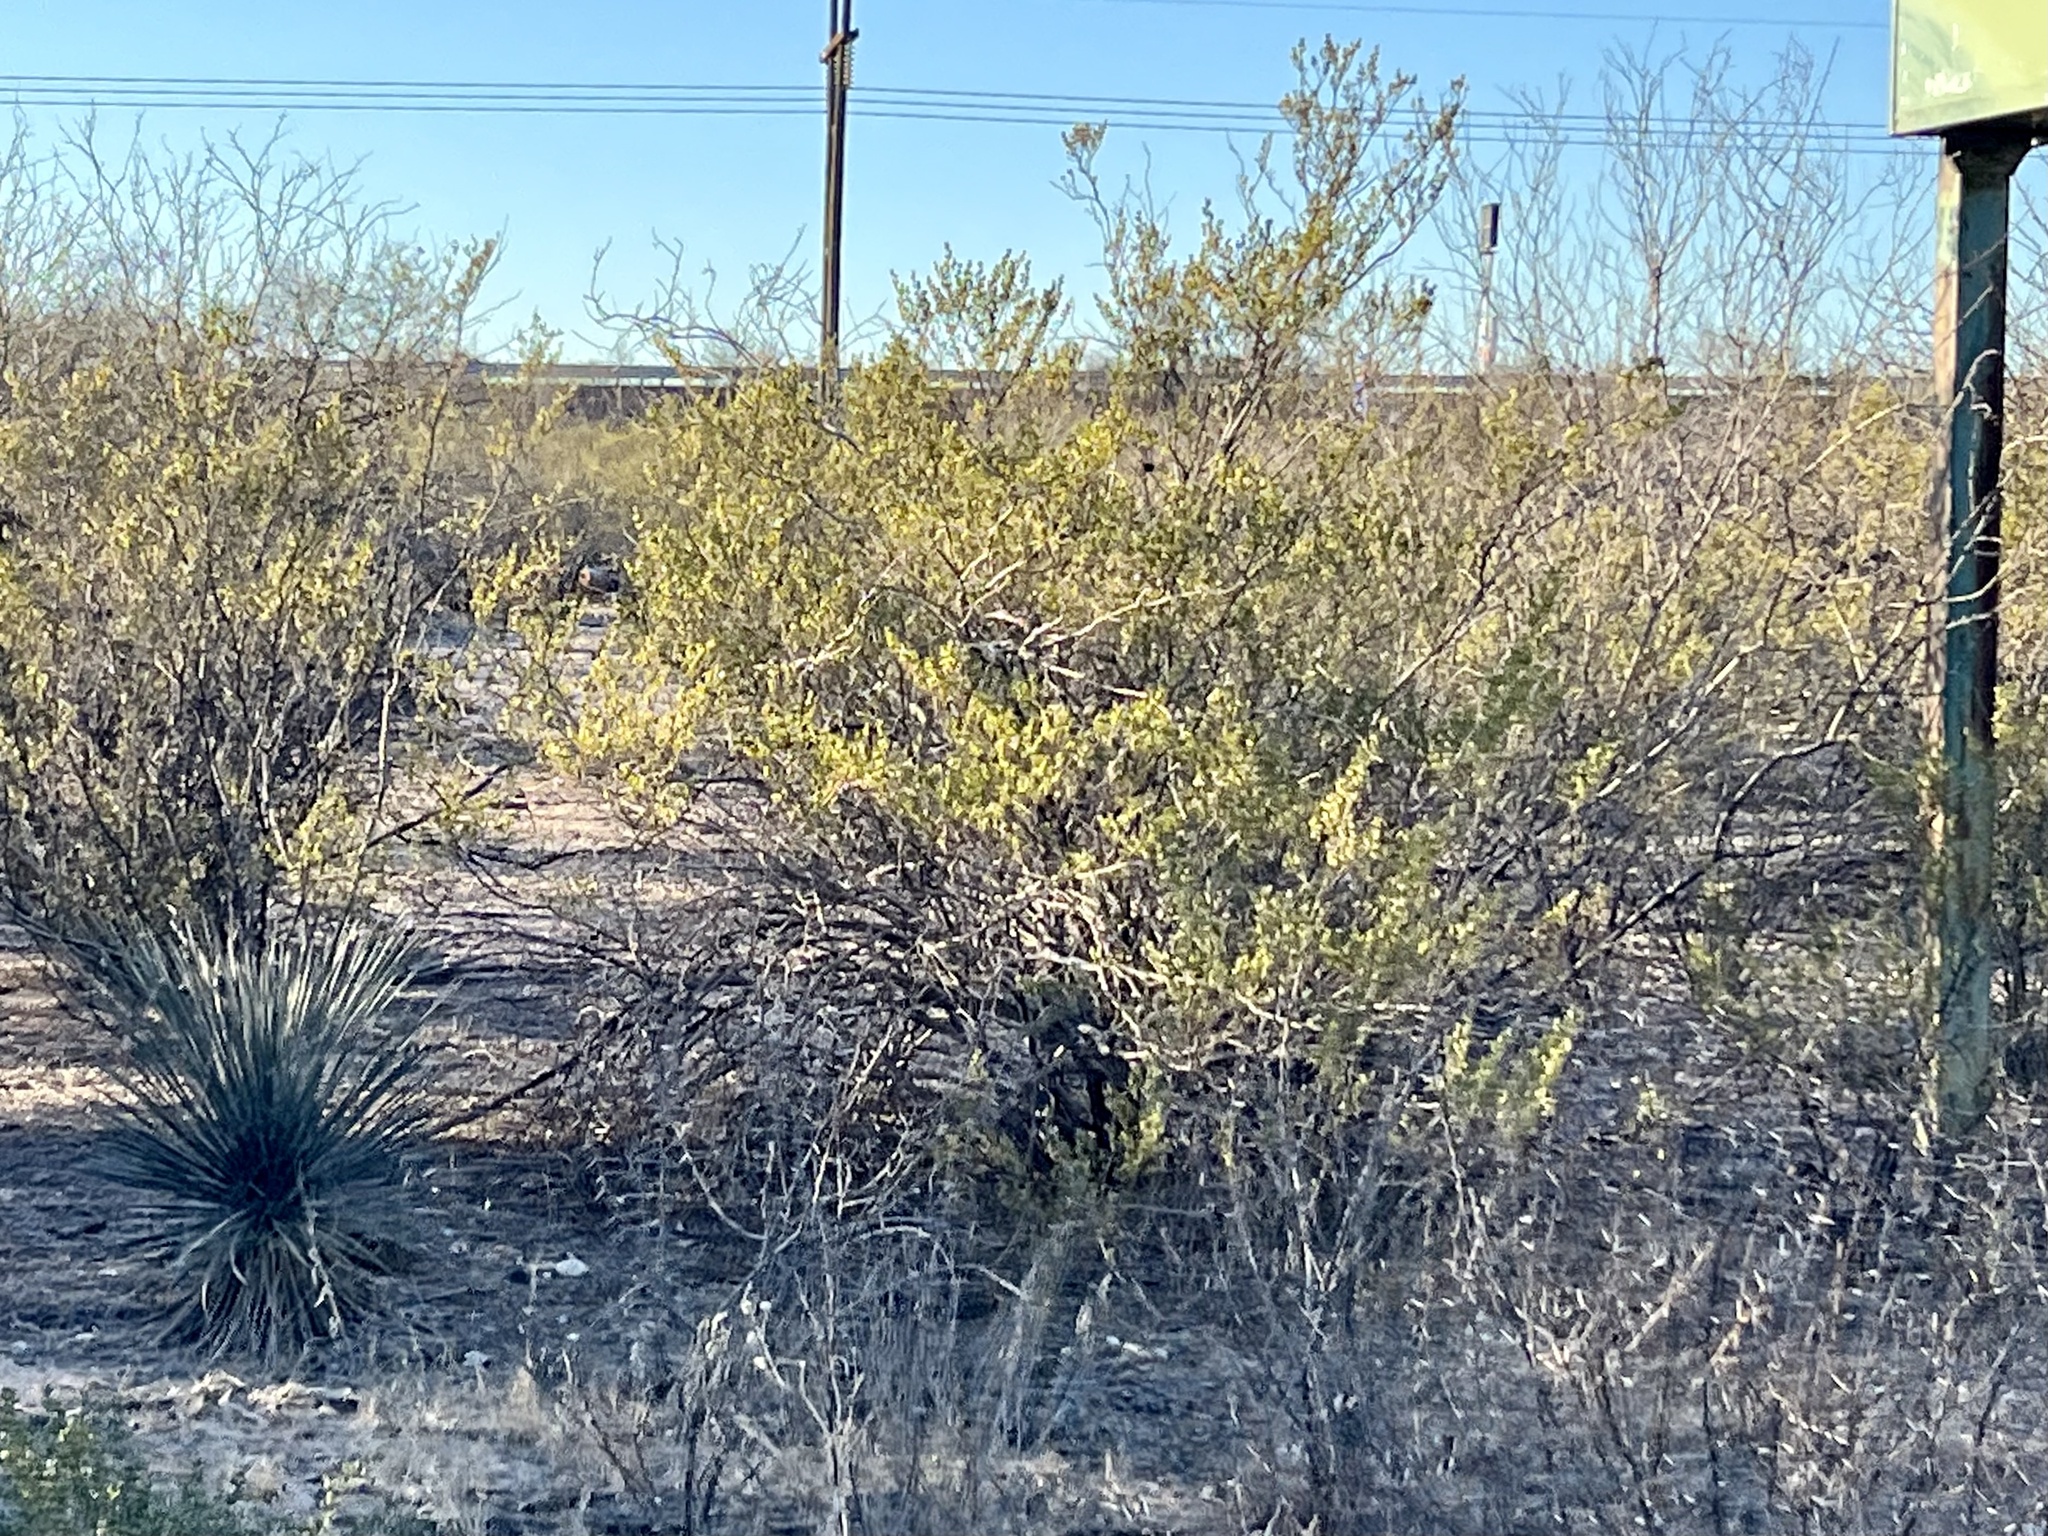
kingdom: Plantae
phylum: Tracheophyta
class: Magnoliopsida
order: Zygophyllales
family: Zygophyllaceae
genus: Larrea
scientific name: Larrea tridentata
